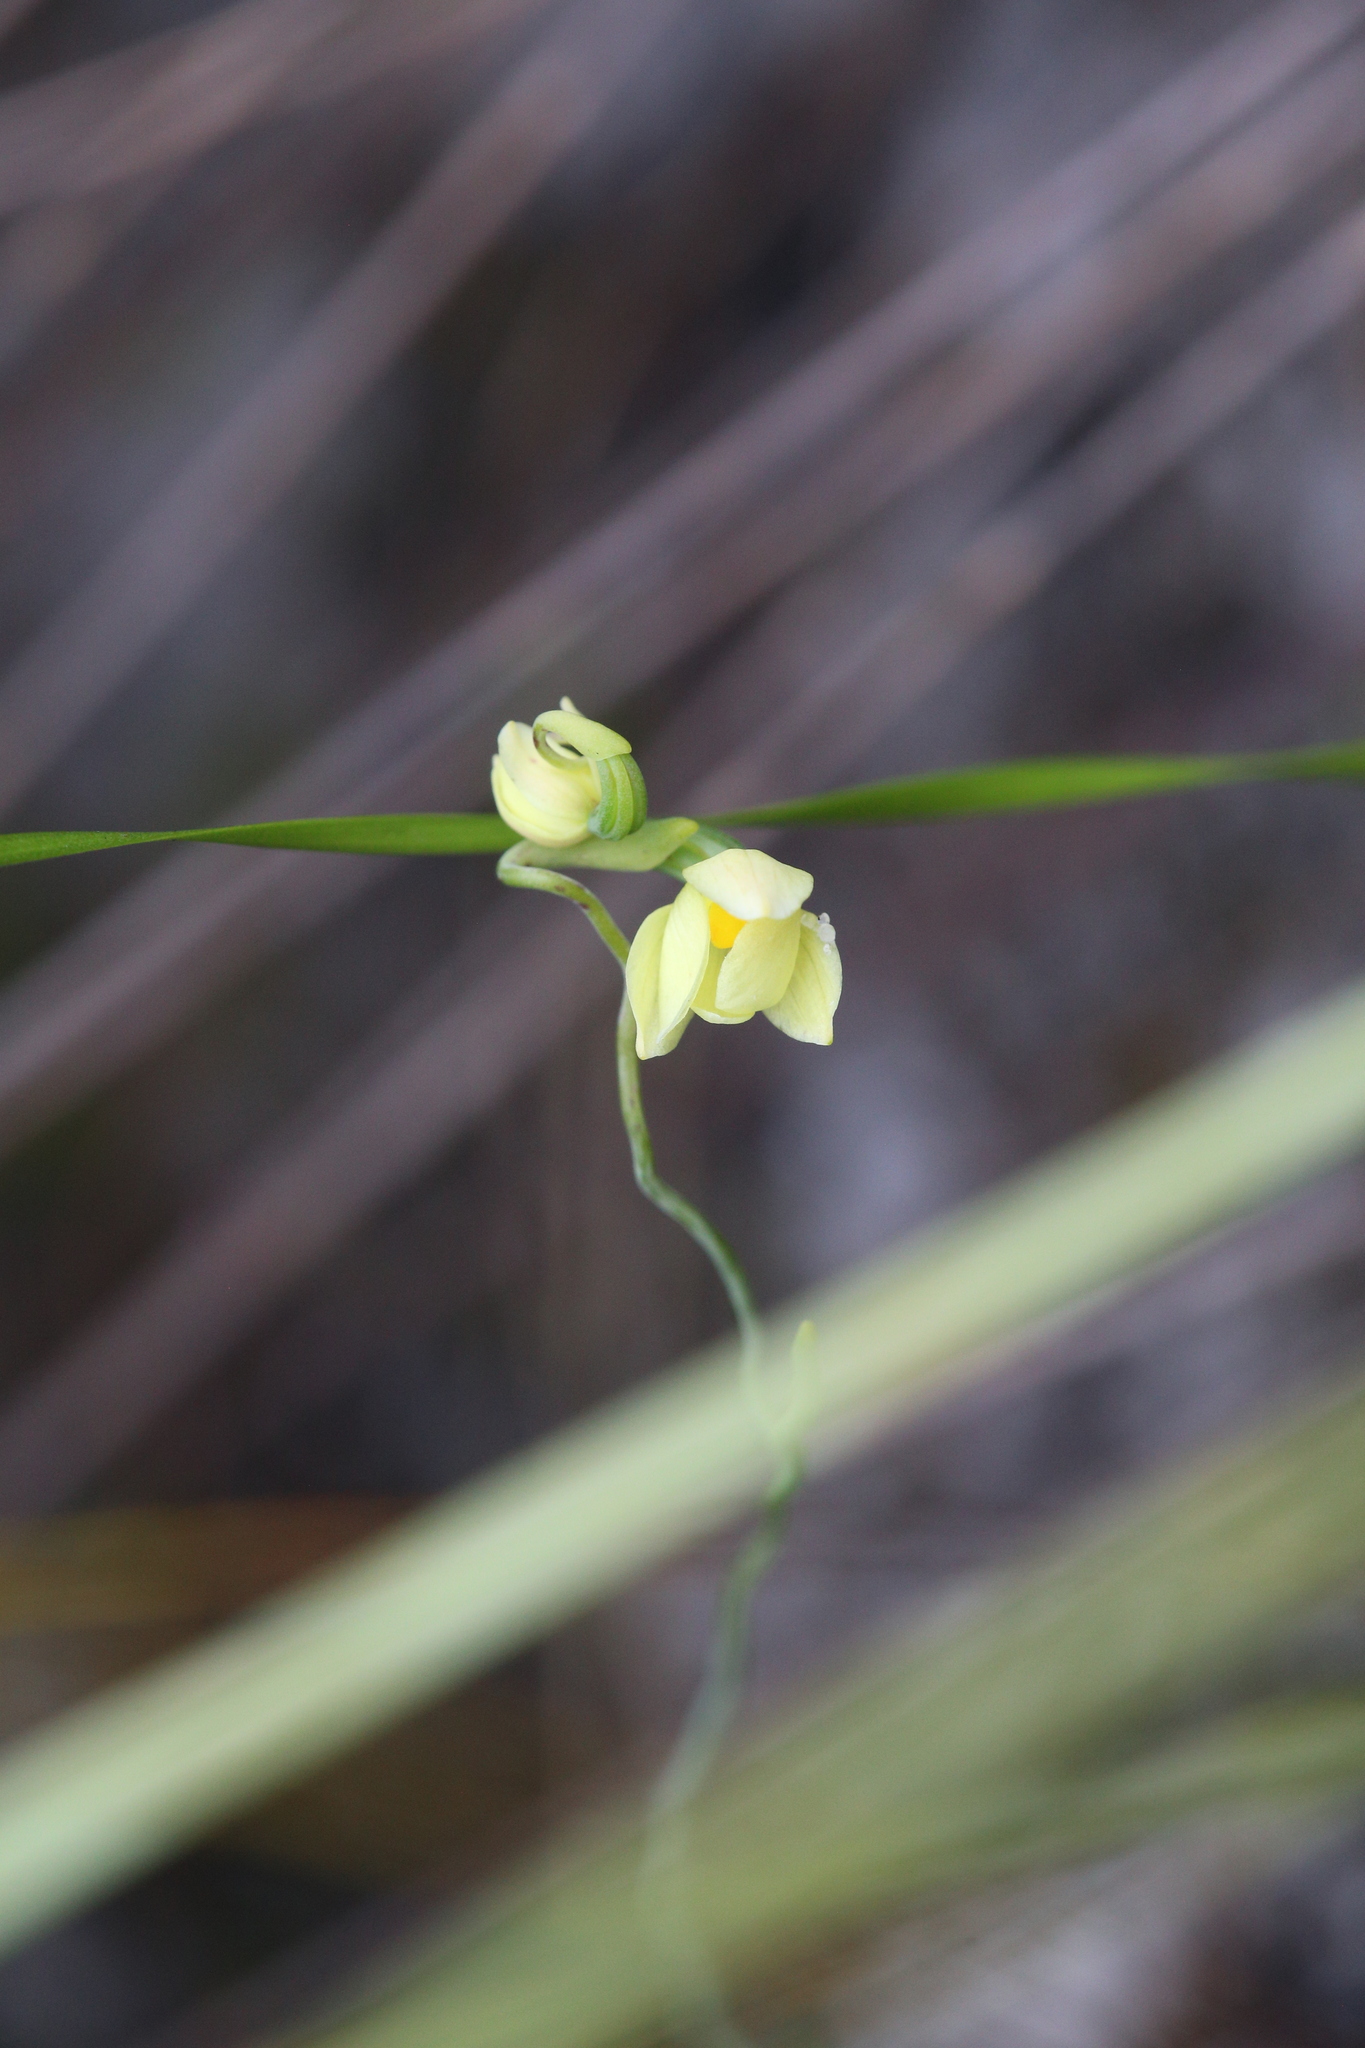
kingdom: Plantae
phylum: Tracheophyta
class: Liliopsida
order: Asparagales
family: Orchidaceae
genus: Thelymitra
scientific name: Thelymitra flexuosa
